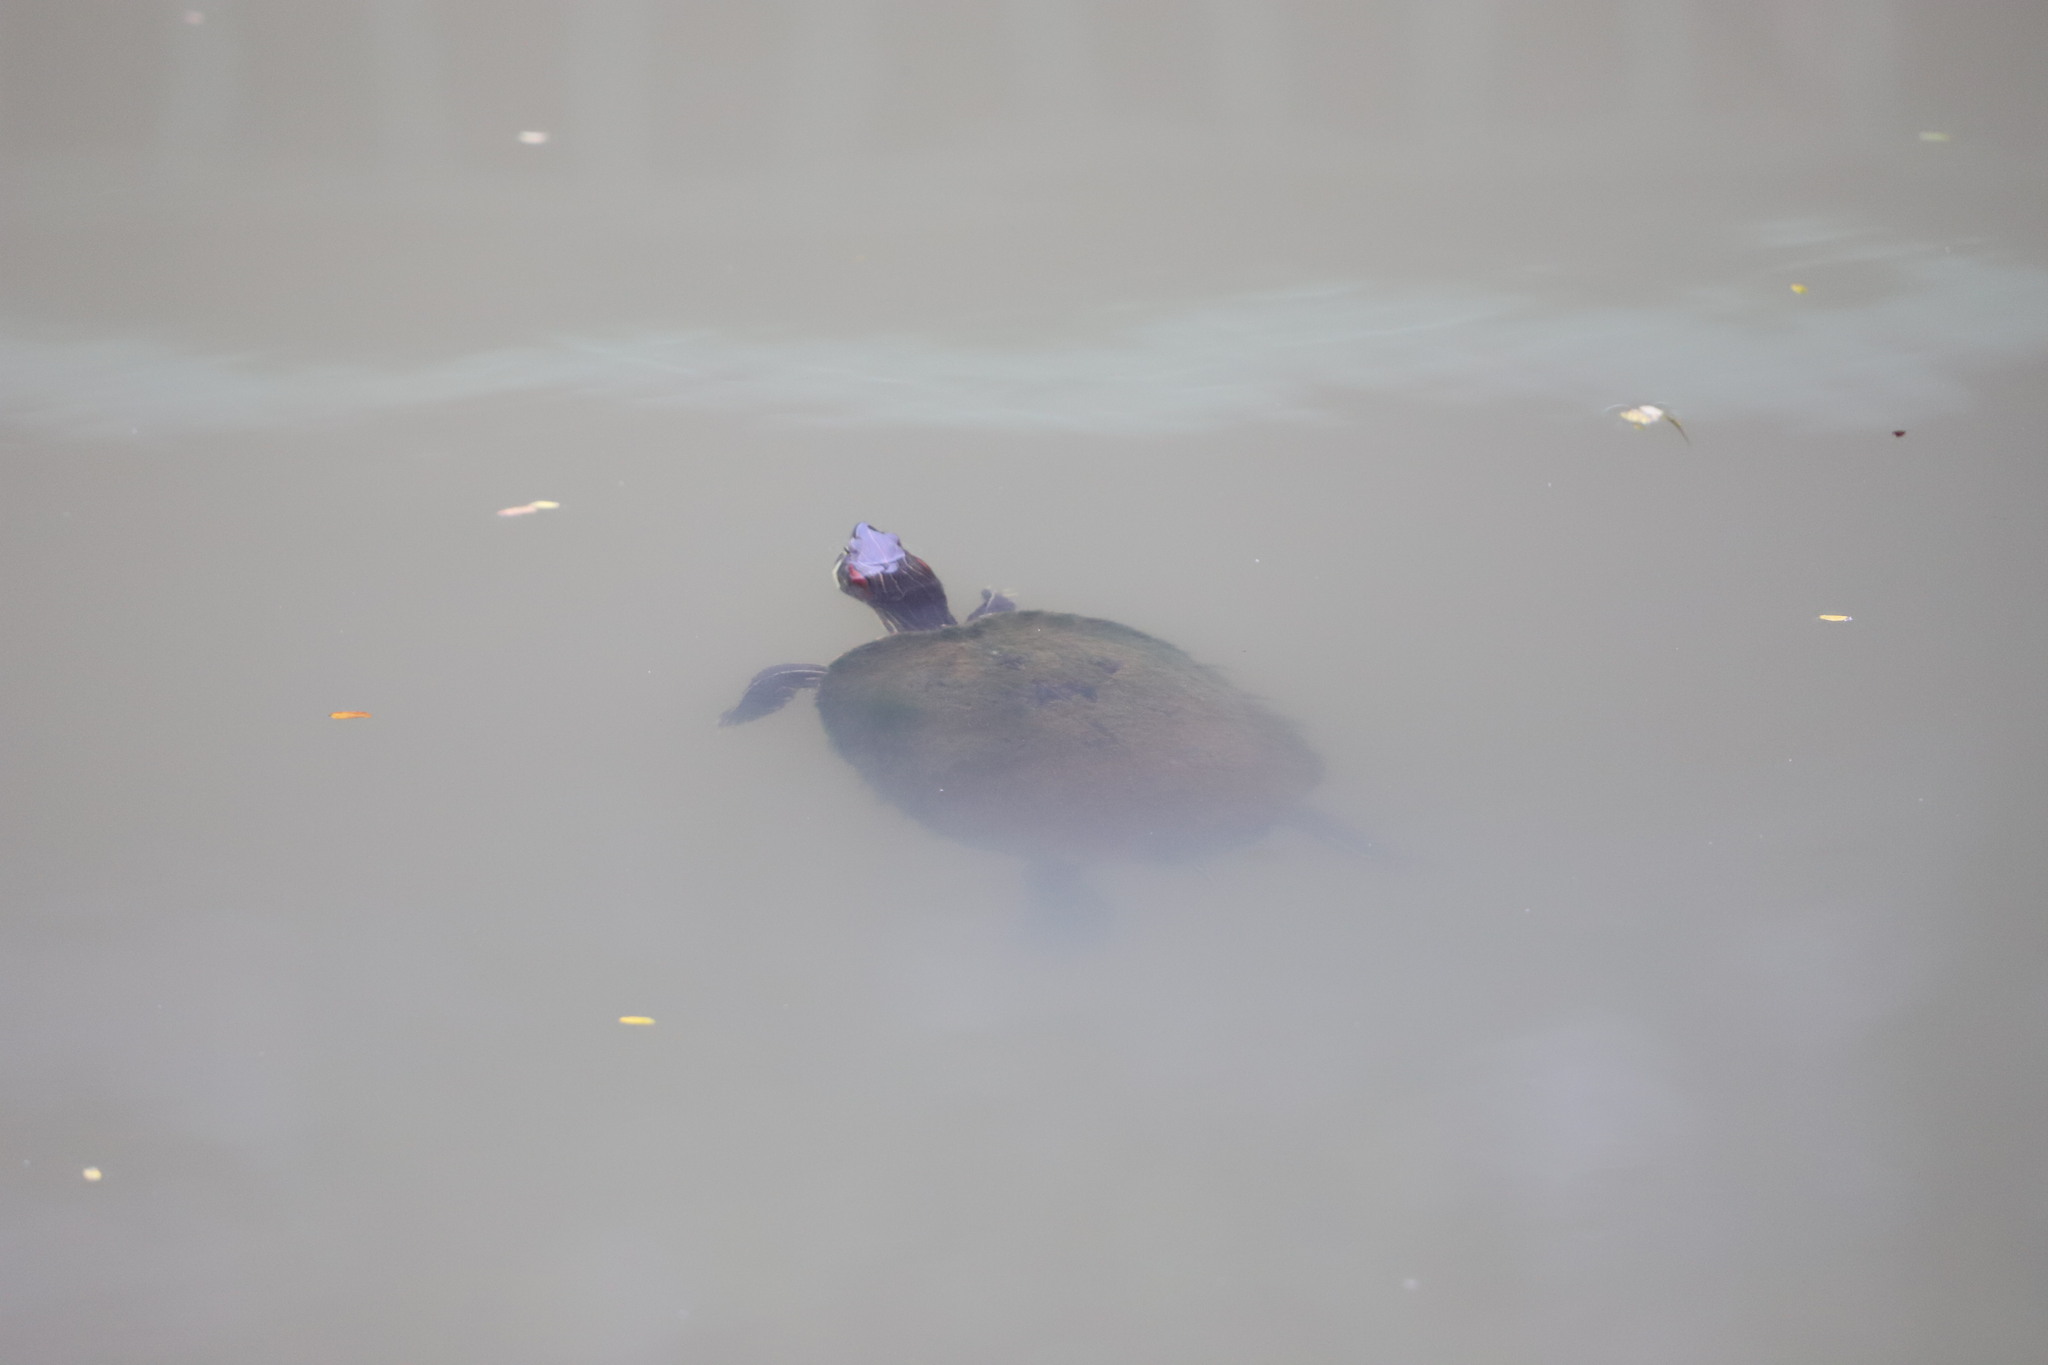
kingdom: Animalia
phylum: Chordata
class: Testudines
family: Emydidae
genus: Trachemys
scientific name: Trachemys scripta
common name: Slider
